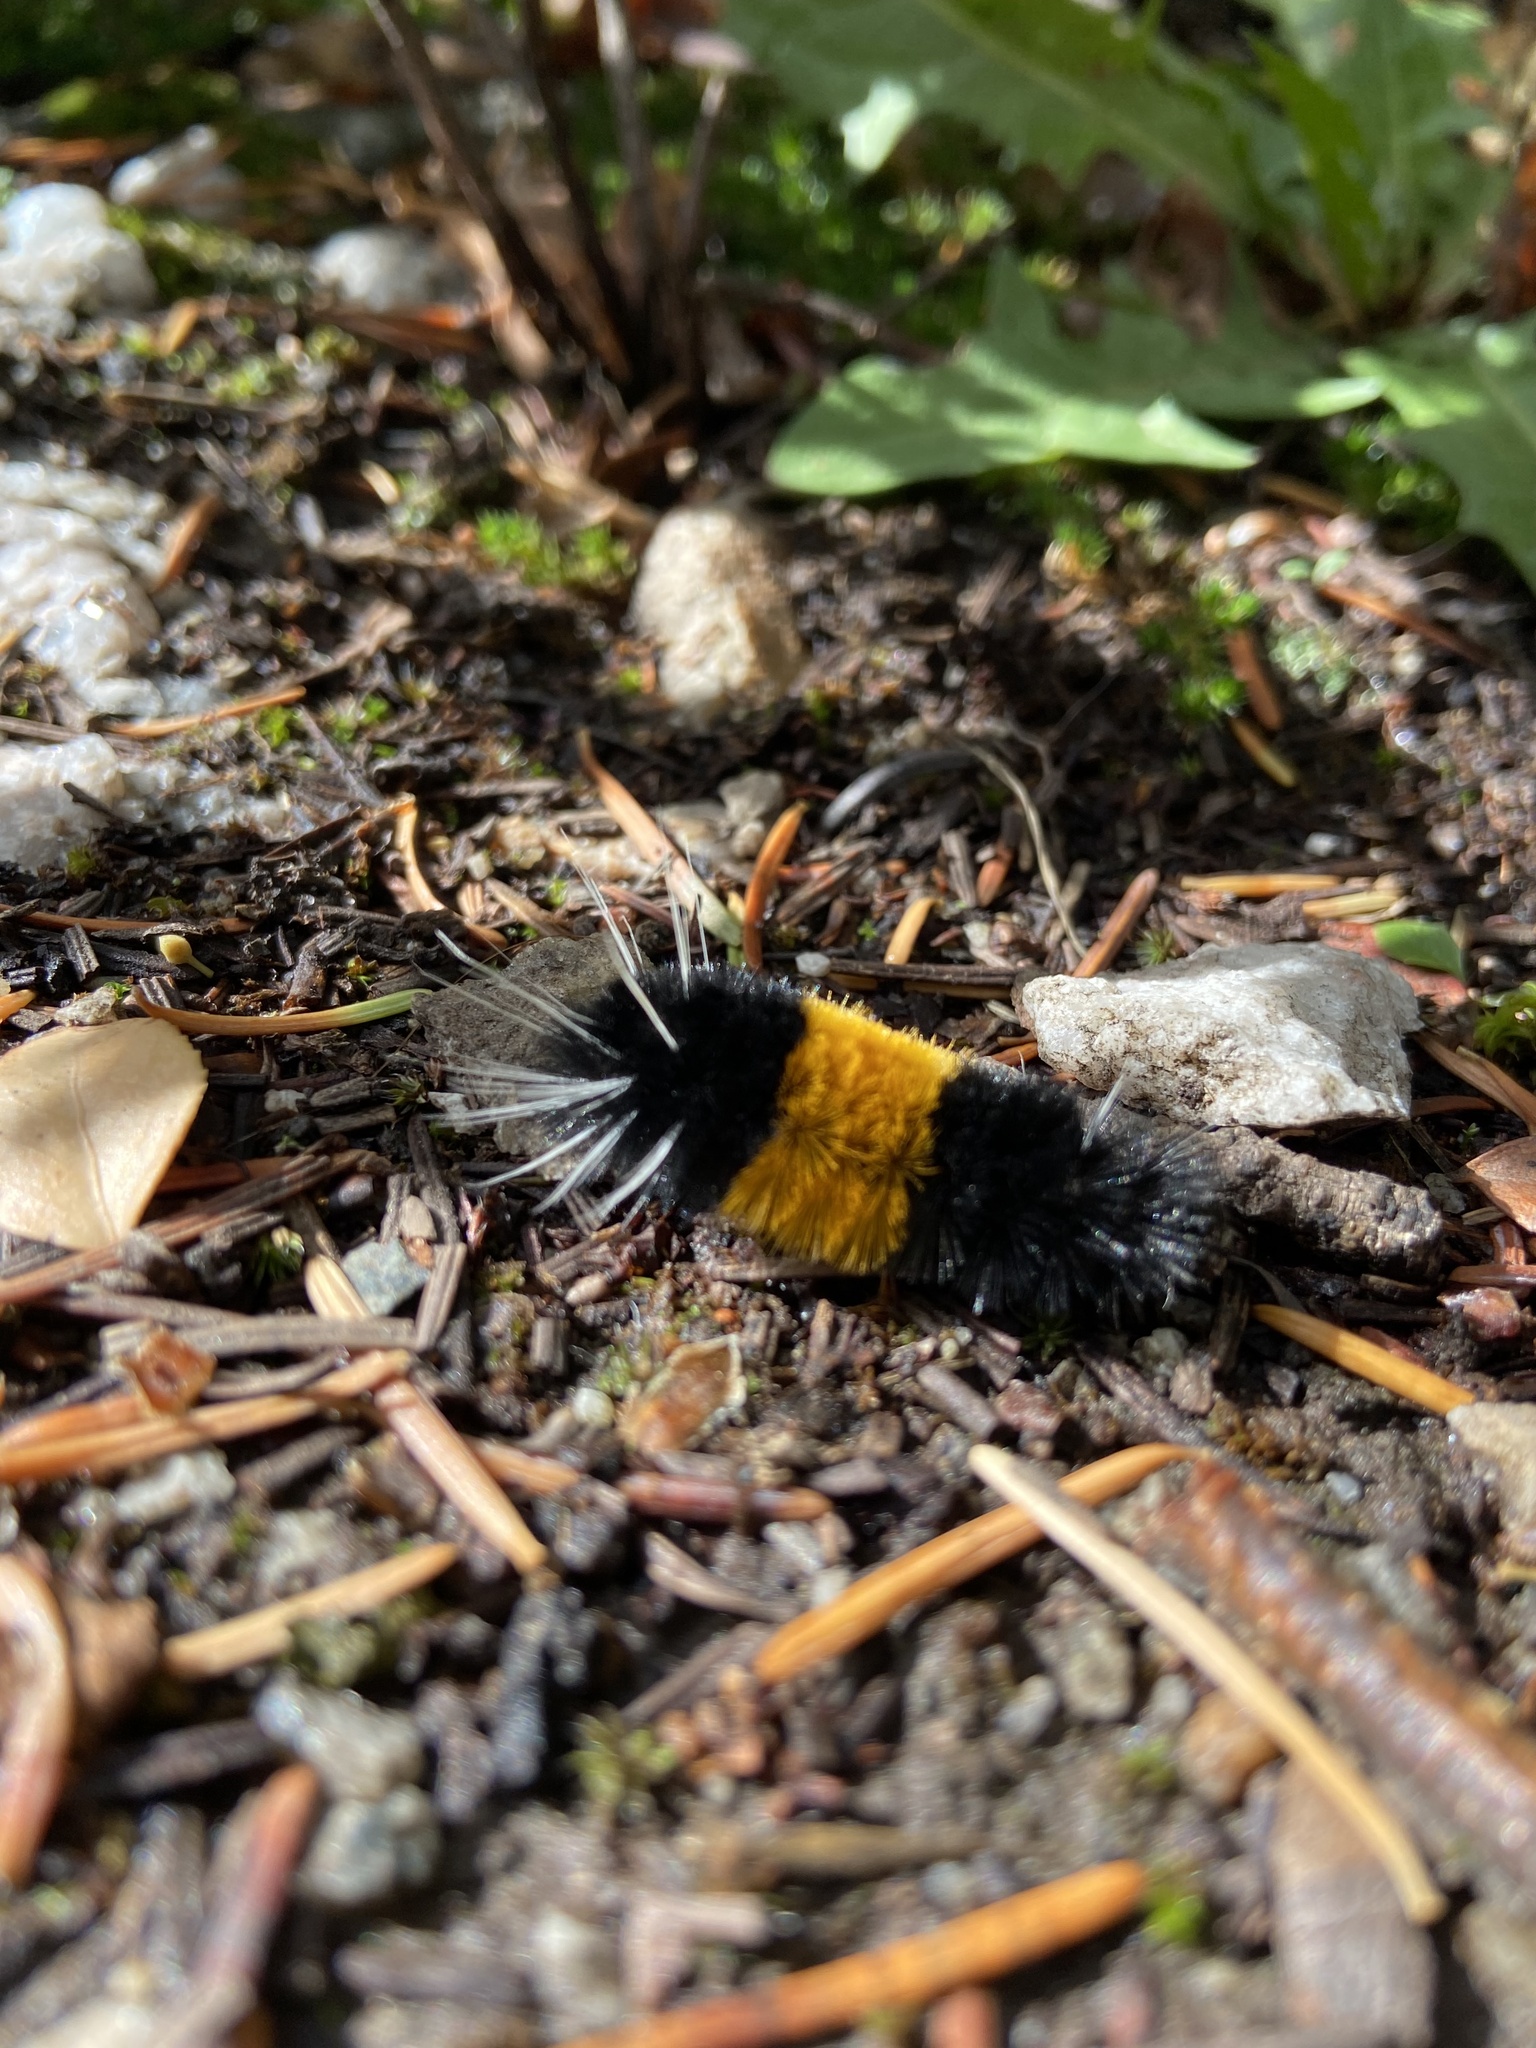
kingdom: Animalia
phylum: Arthropoda
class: Insecta
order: Lepidoptera
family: Erebidae
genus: Lophocampa
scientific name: Lophocampa maculata
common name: Spotted tussock moth
